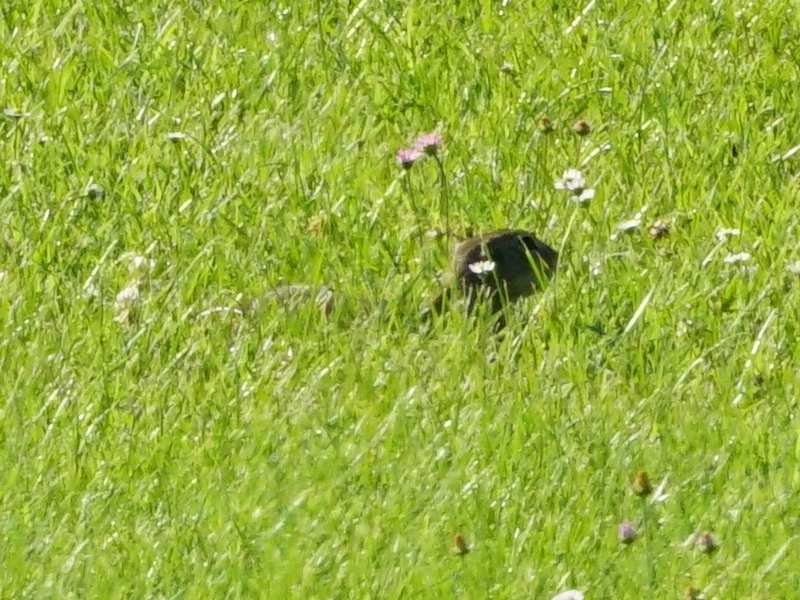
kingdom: Animalia
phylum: Chordata
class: Mammalia
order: Rodentia
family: Sciuridae
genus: Spermophilus
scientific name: Spermophilus citellus
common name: European ground squirrel
